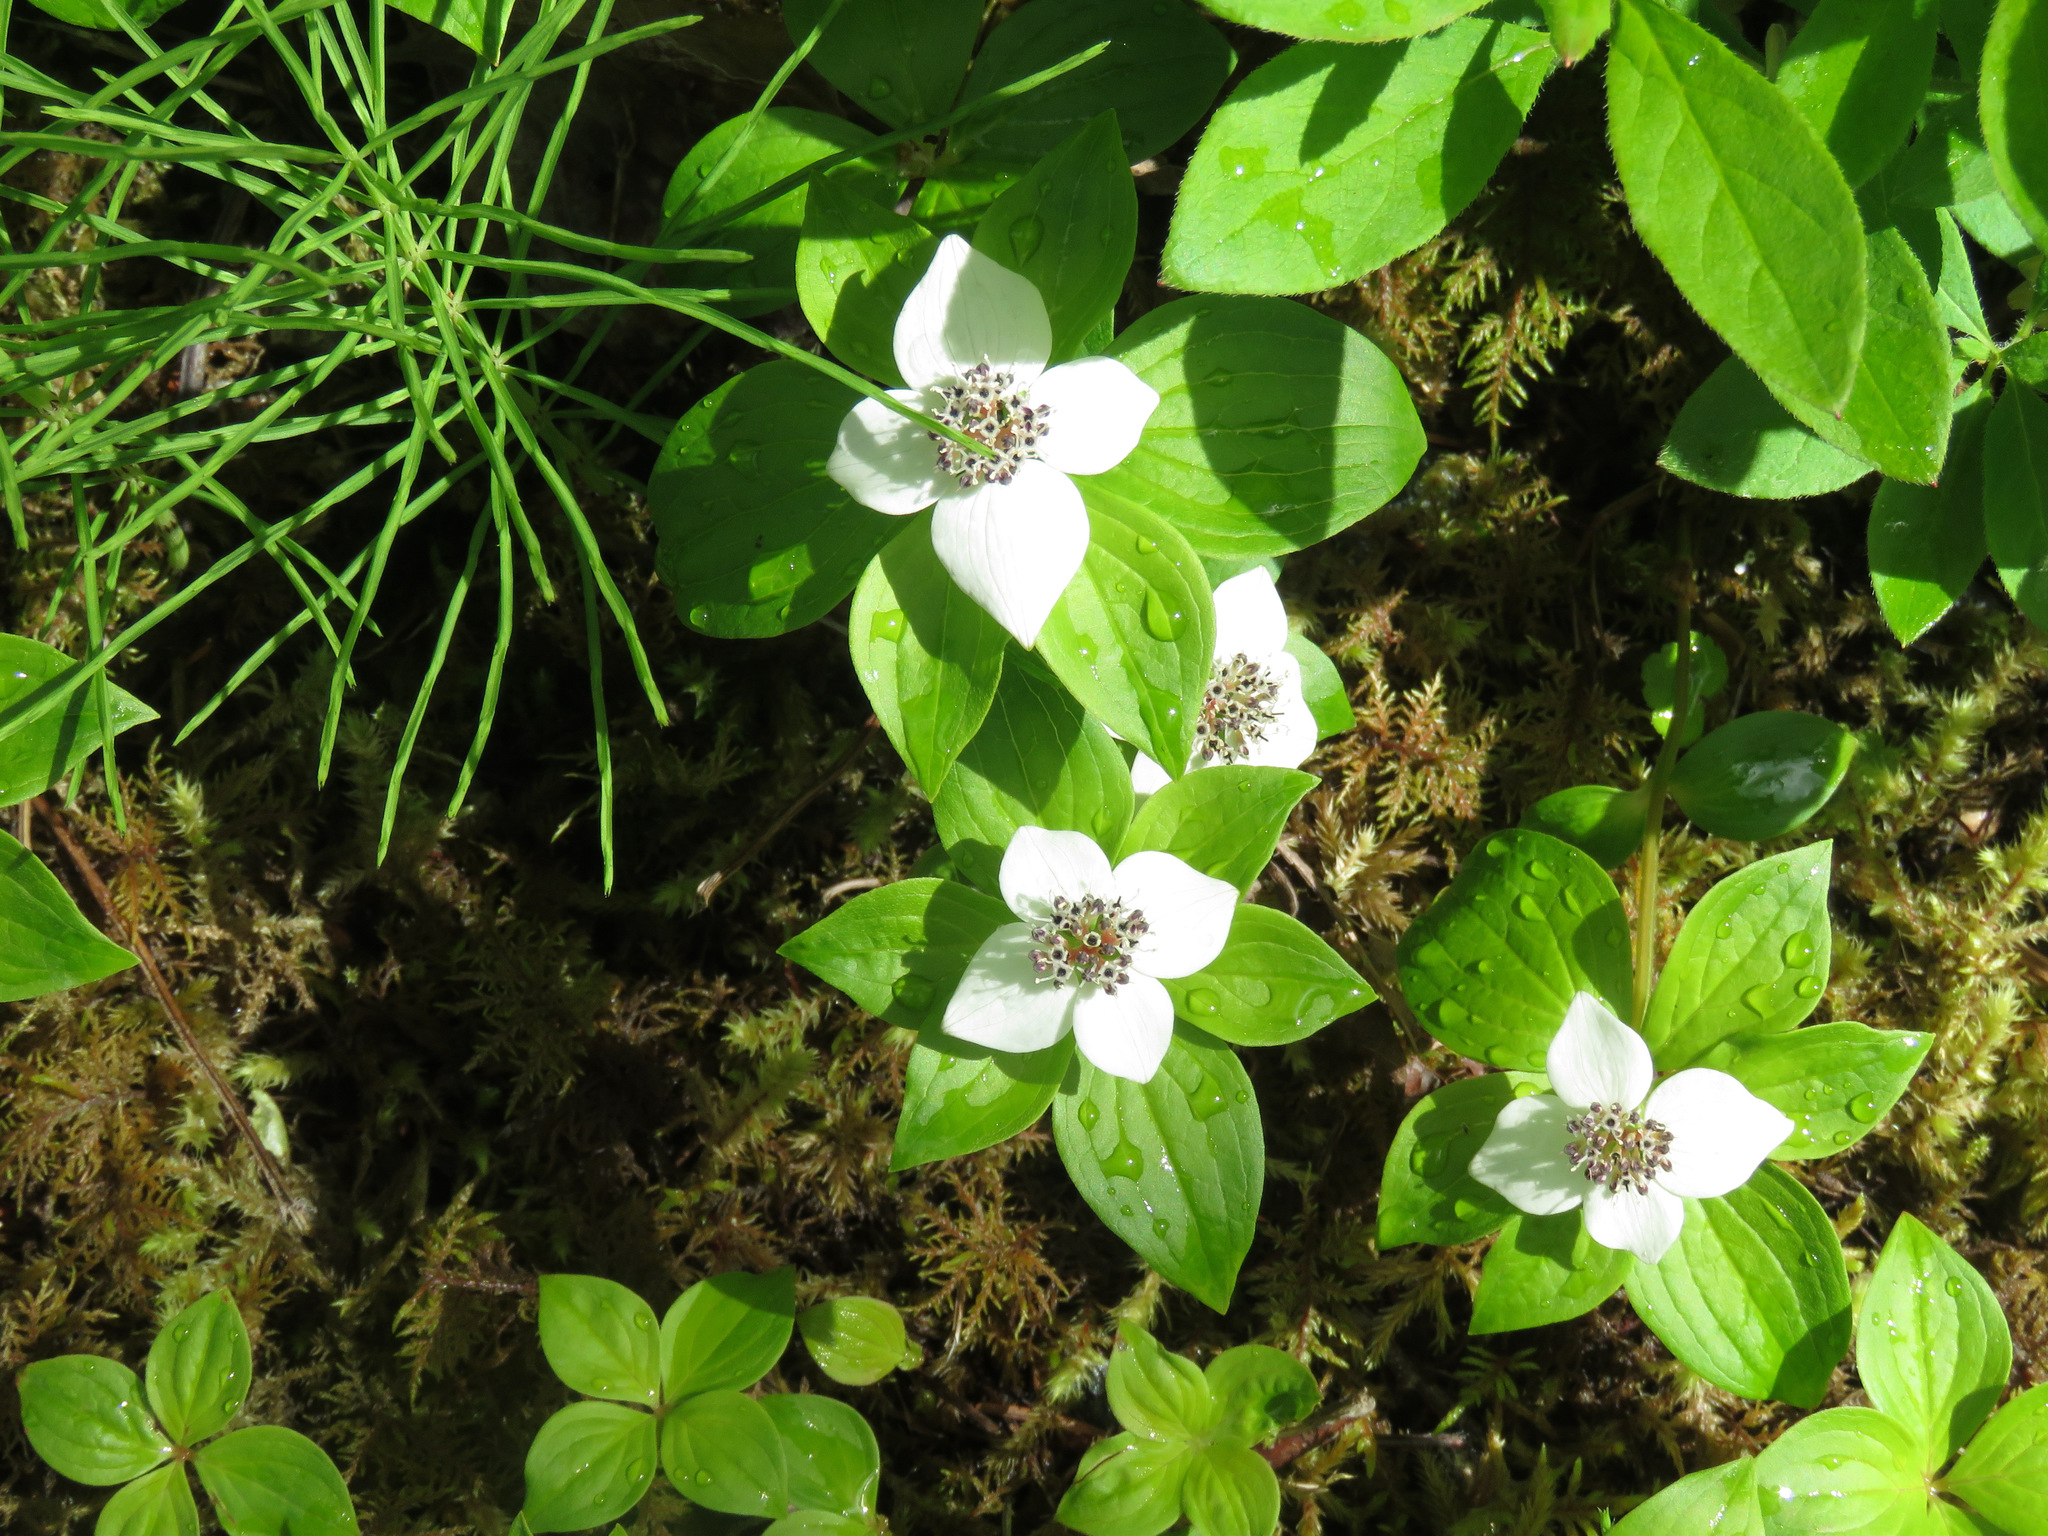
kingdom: Plantae
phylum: Tracheophyta
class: Magnoliopsida
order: Cornales
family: Cornaceae
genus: Cornus
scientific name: Cornus unalaschkensis
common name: Alaska bunchberry
